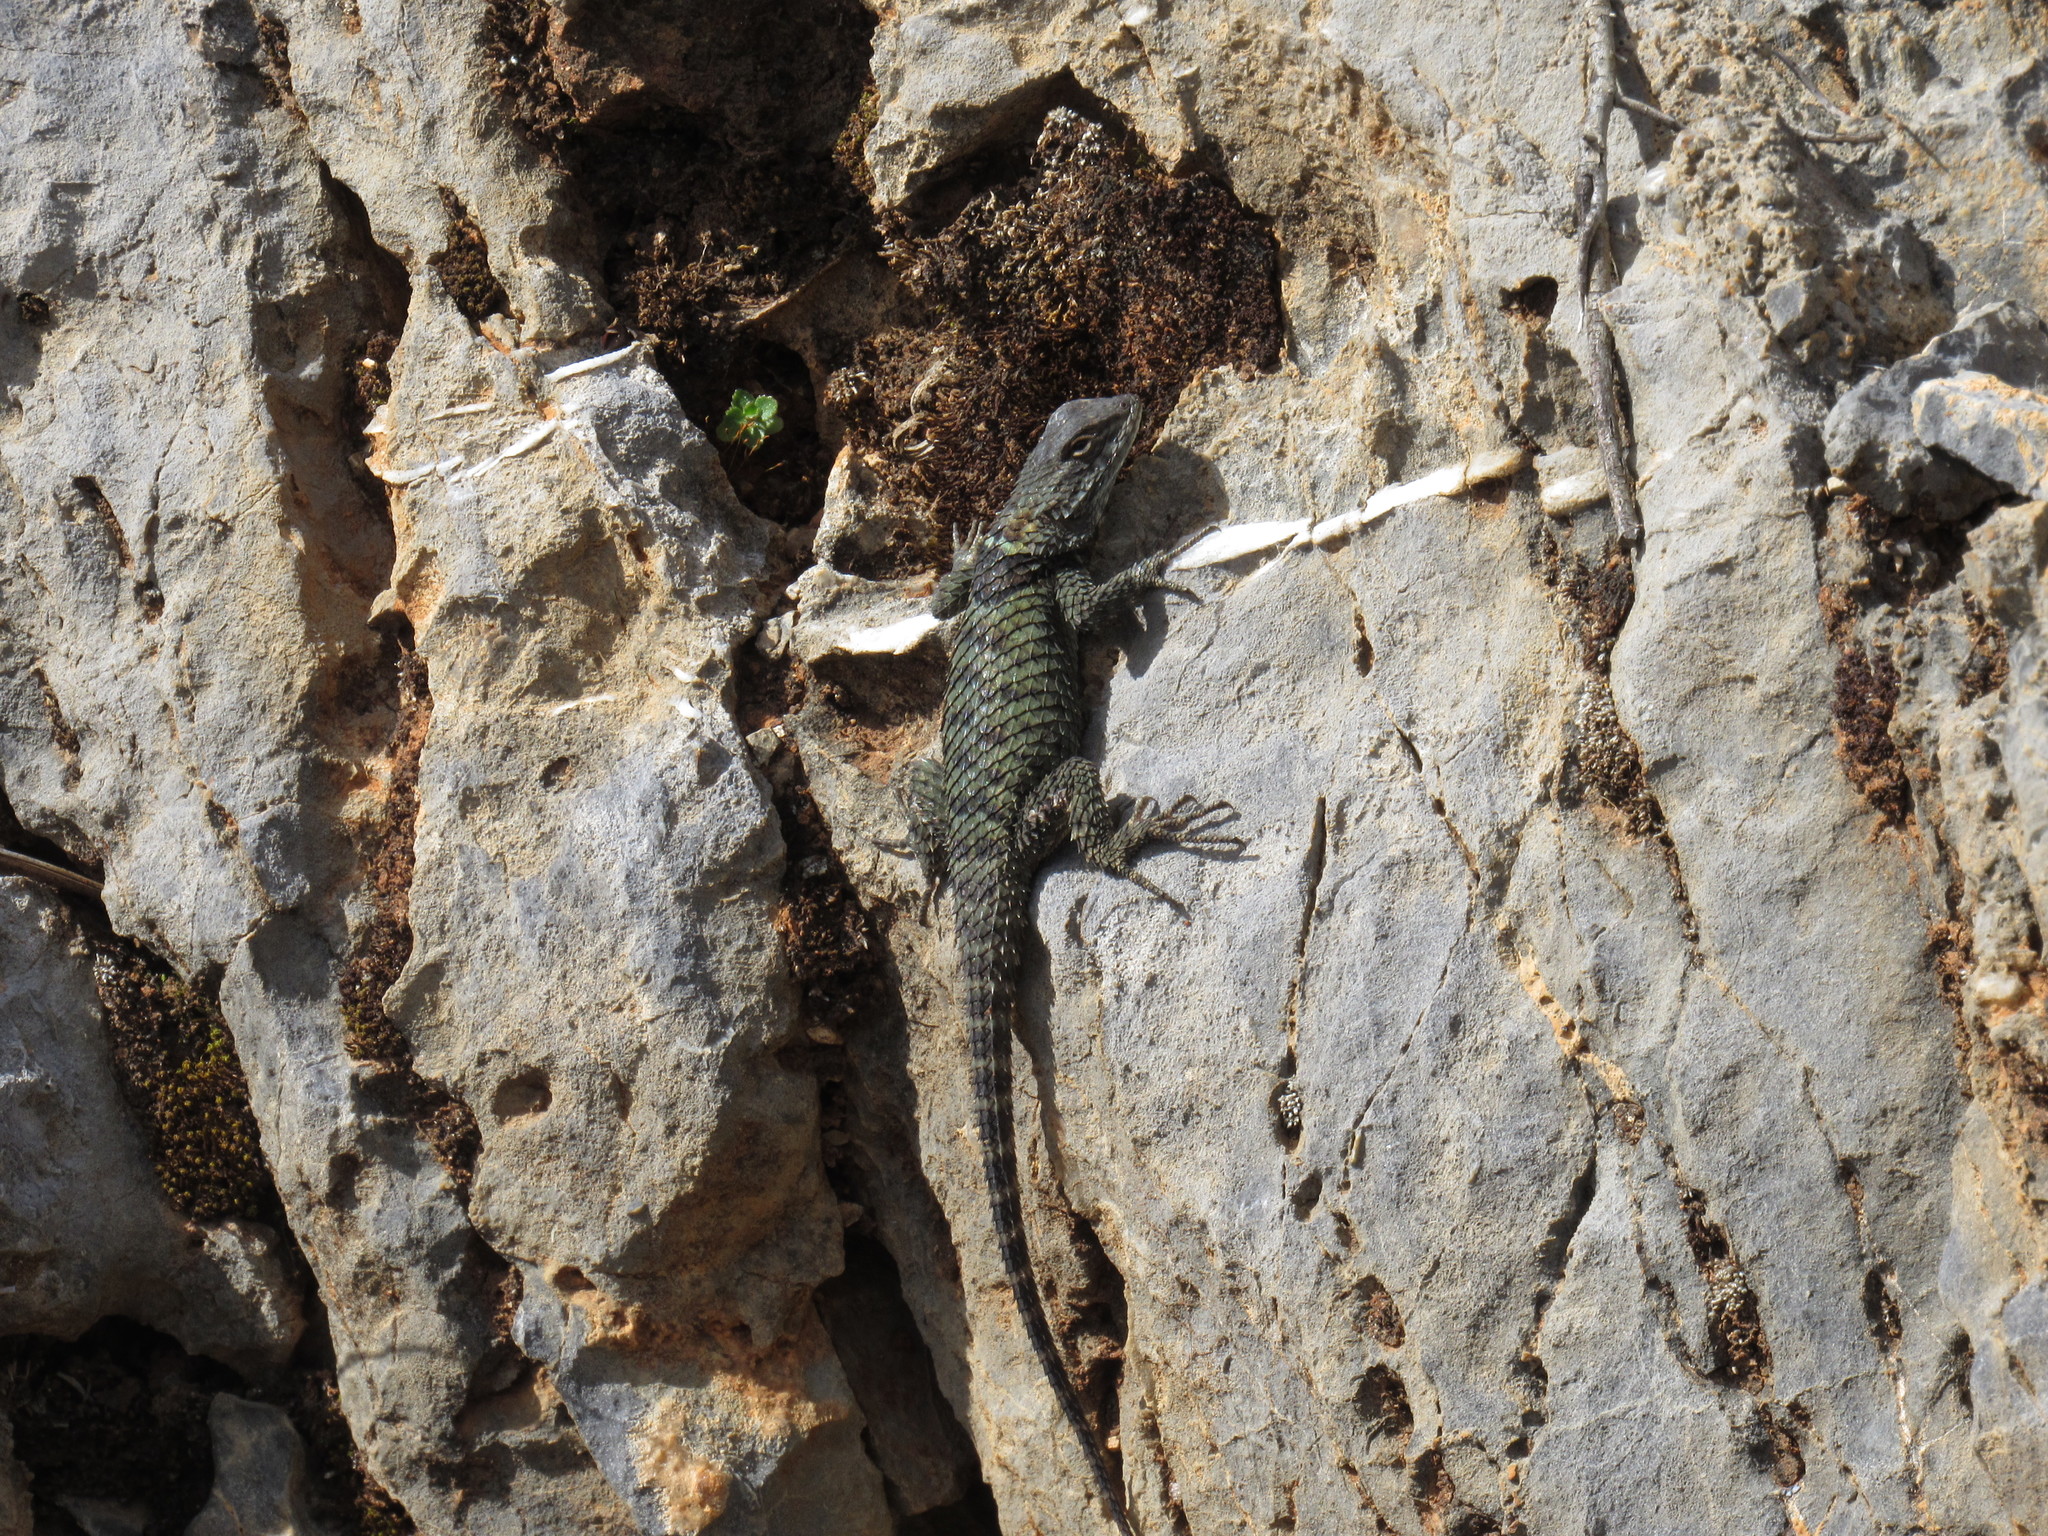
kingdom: Animalia
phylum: Chordata
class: Squamata
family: Phrynosomatidae
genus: Sceloporus
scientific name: Sceloporus torquatus
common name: Central plateau torquate lizard [melanogaster]
